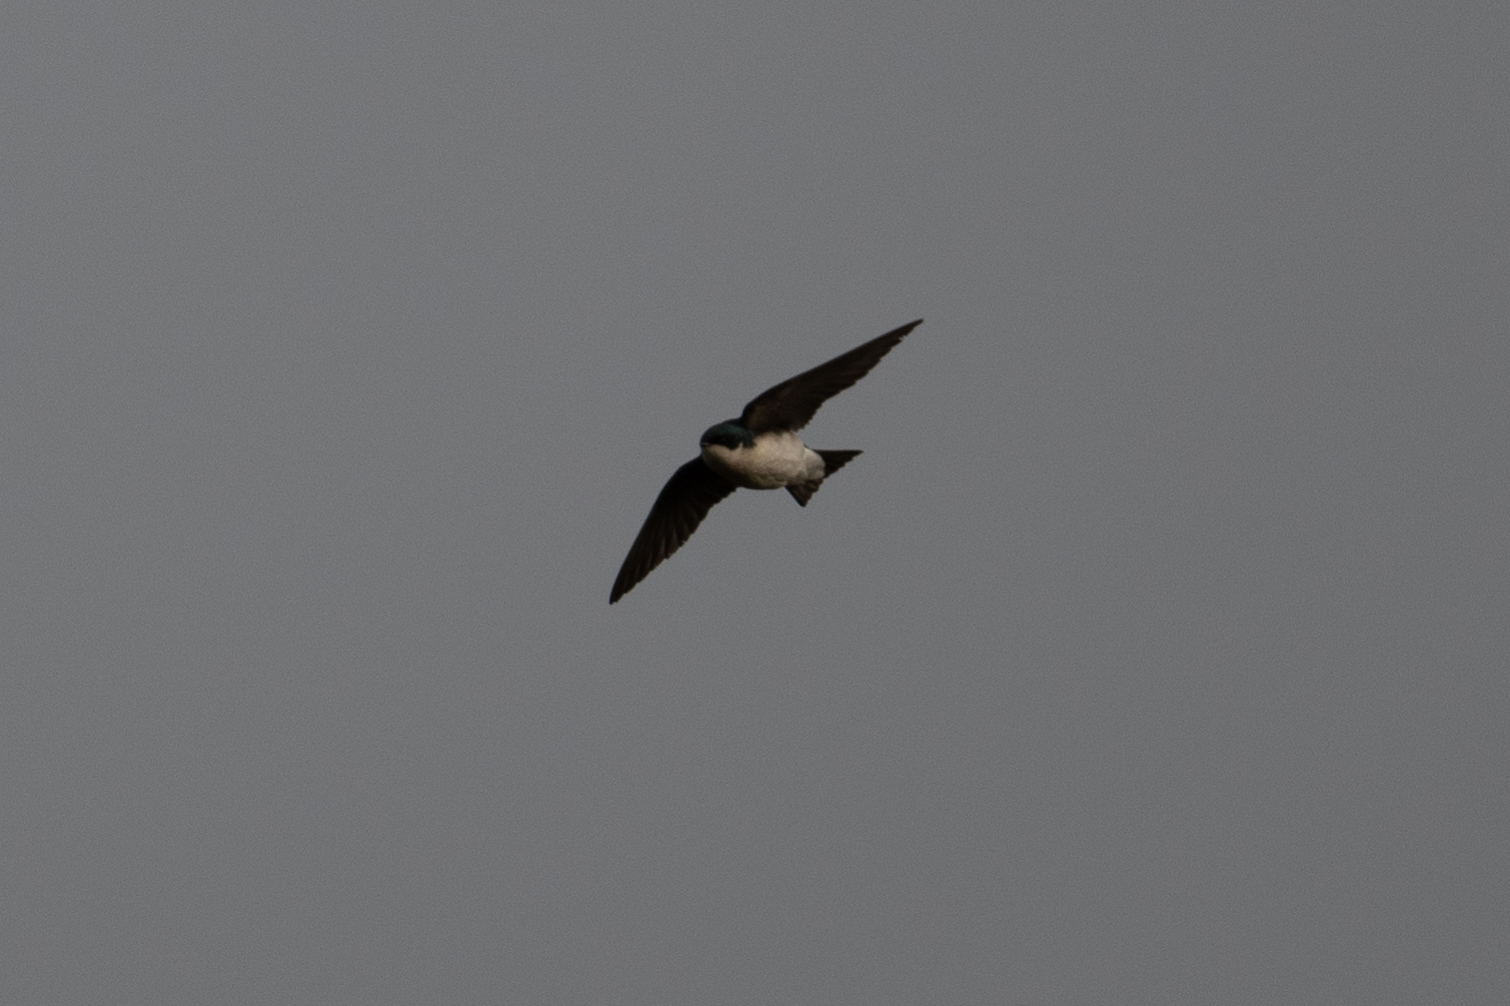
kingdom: Animalia
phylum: Chordata
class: Aves
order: Passeriformes
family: Hirundinidae
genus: Tachycineta
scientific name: Tachycineta bicolor
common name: Tree swallow
